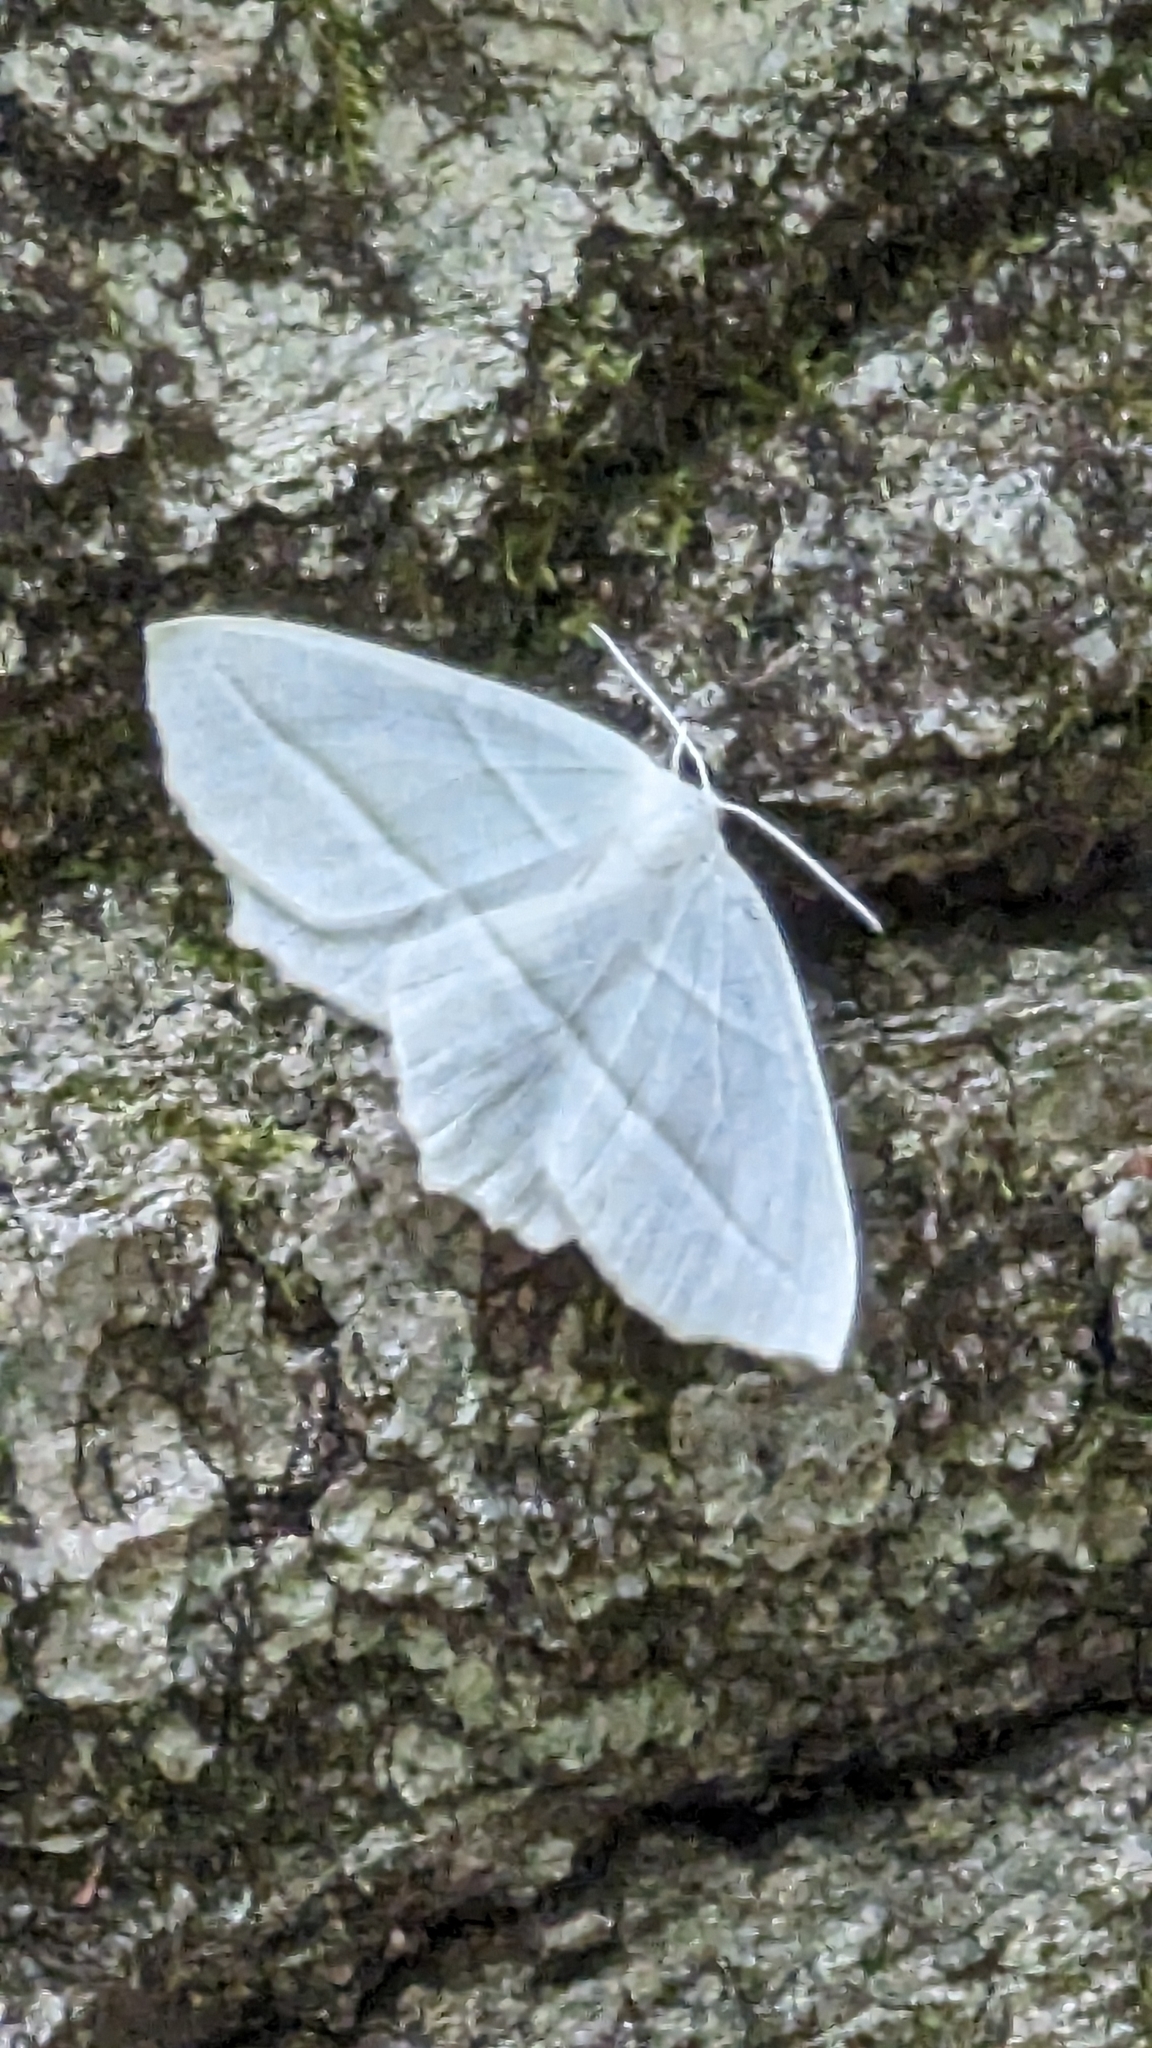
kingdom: Animalia
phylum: Arthropoda
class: Insecta
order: Lepidoptera
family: Geometridae
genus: Campaea
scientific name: Campaea perlata
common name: Fringed looper
